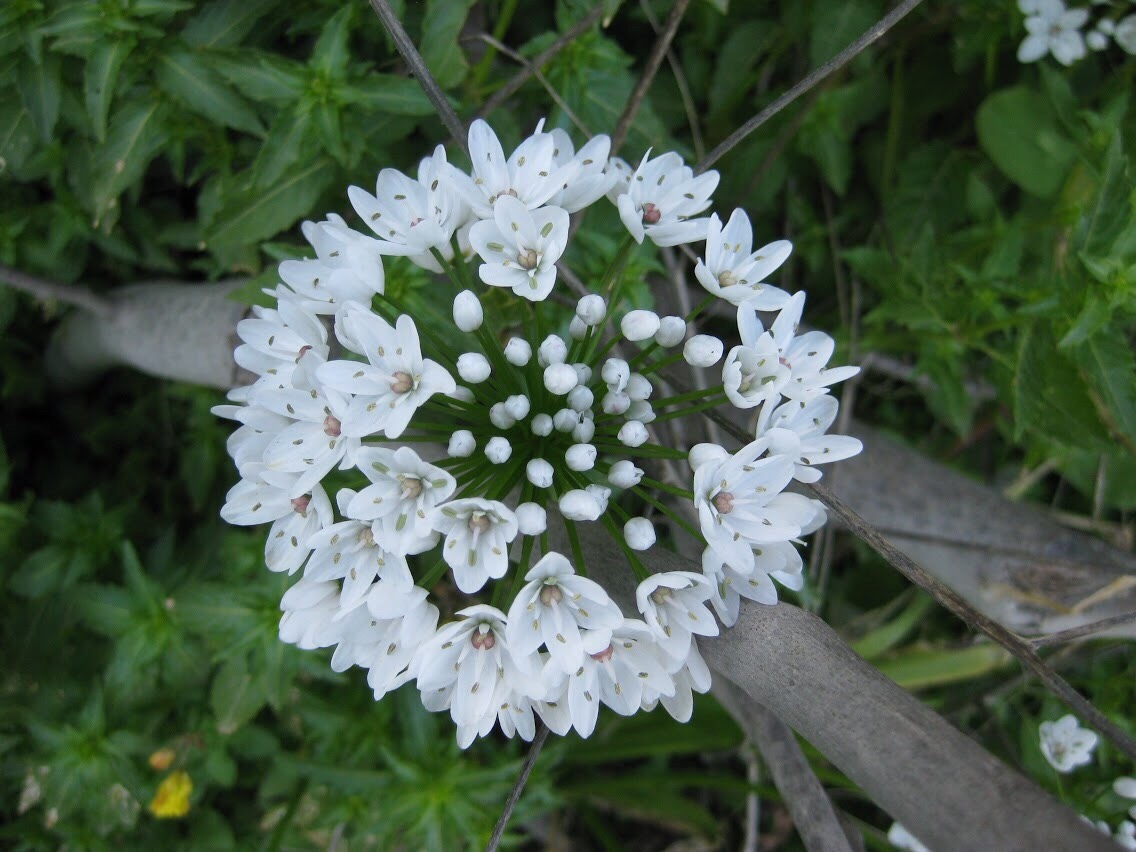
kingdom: Plantae
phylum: Tracheophyta
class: Liliopsida
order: Asparagales
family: Amaryllidaceae
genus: Allium
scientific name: Allium neapolitanum
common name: Neapolitan garlic
